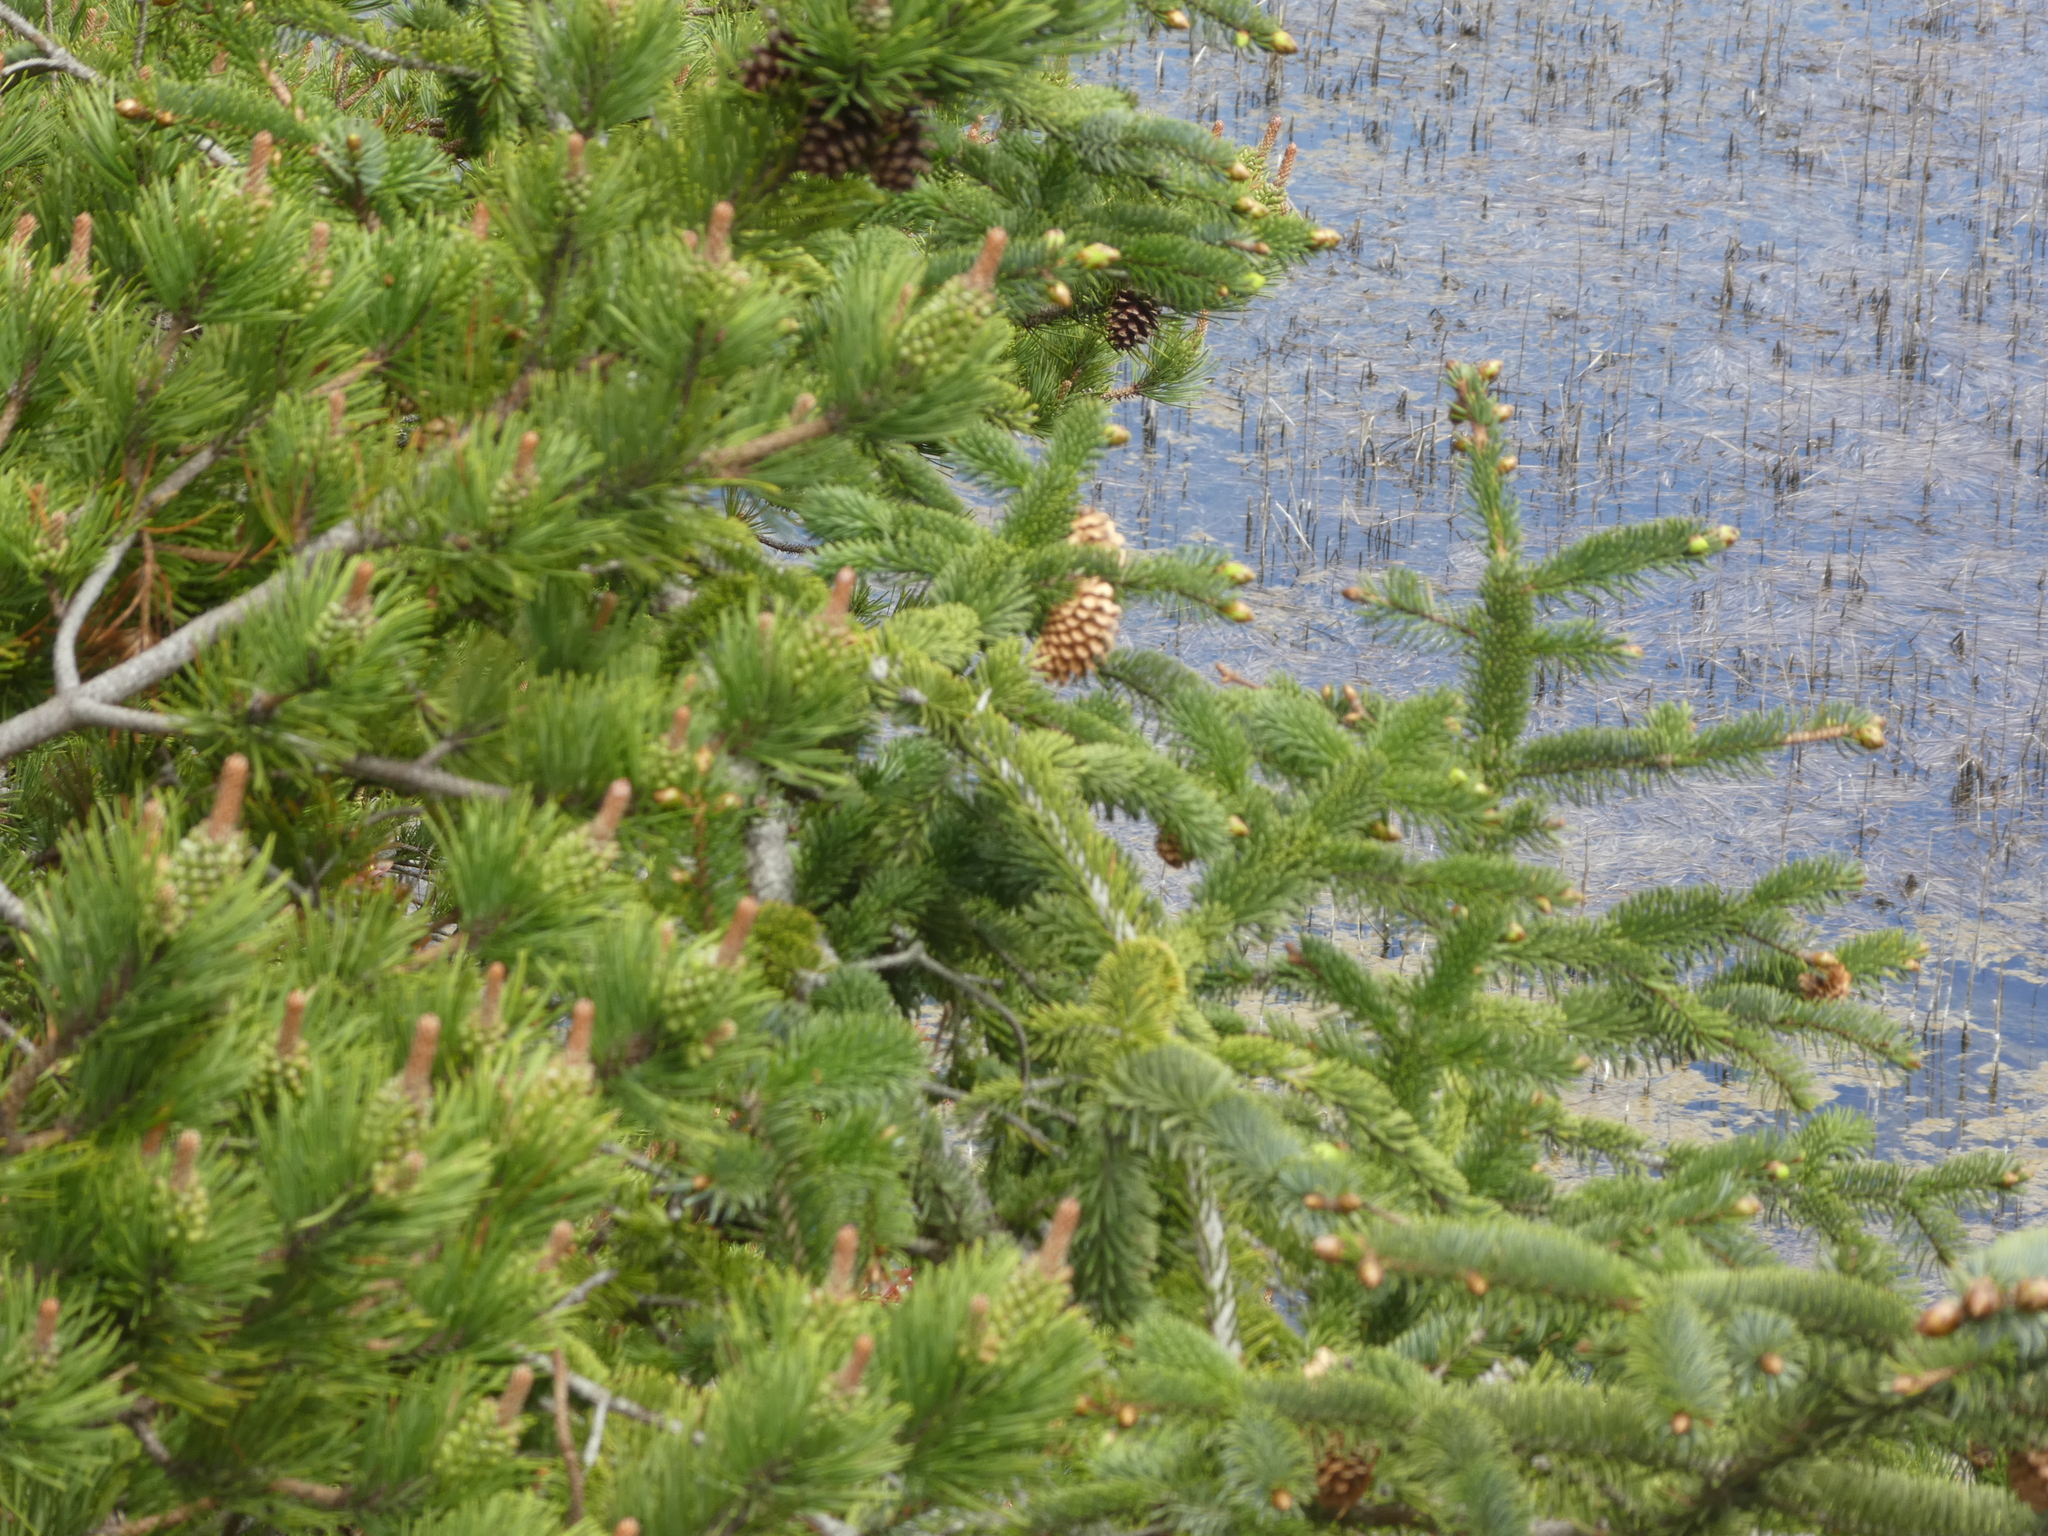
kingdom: Plantae
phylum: Tracheophyta
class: Pinopsida
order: Pinales
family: Pinaceae
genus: Picea
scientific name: Picea sitchensis
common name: Sitka spruce
